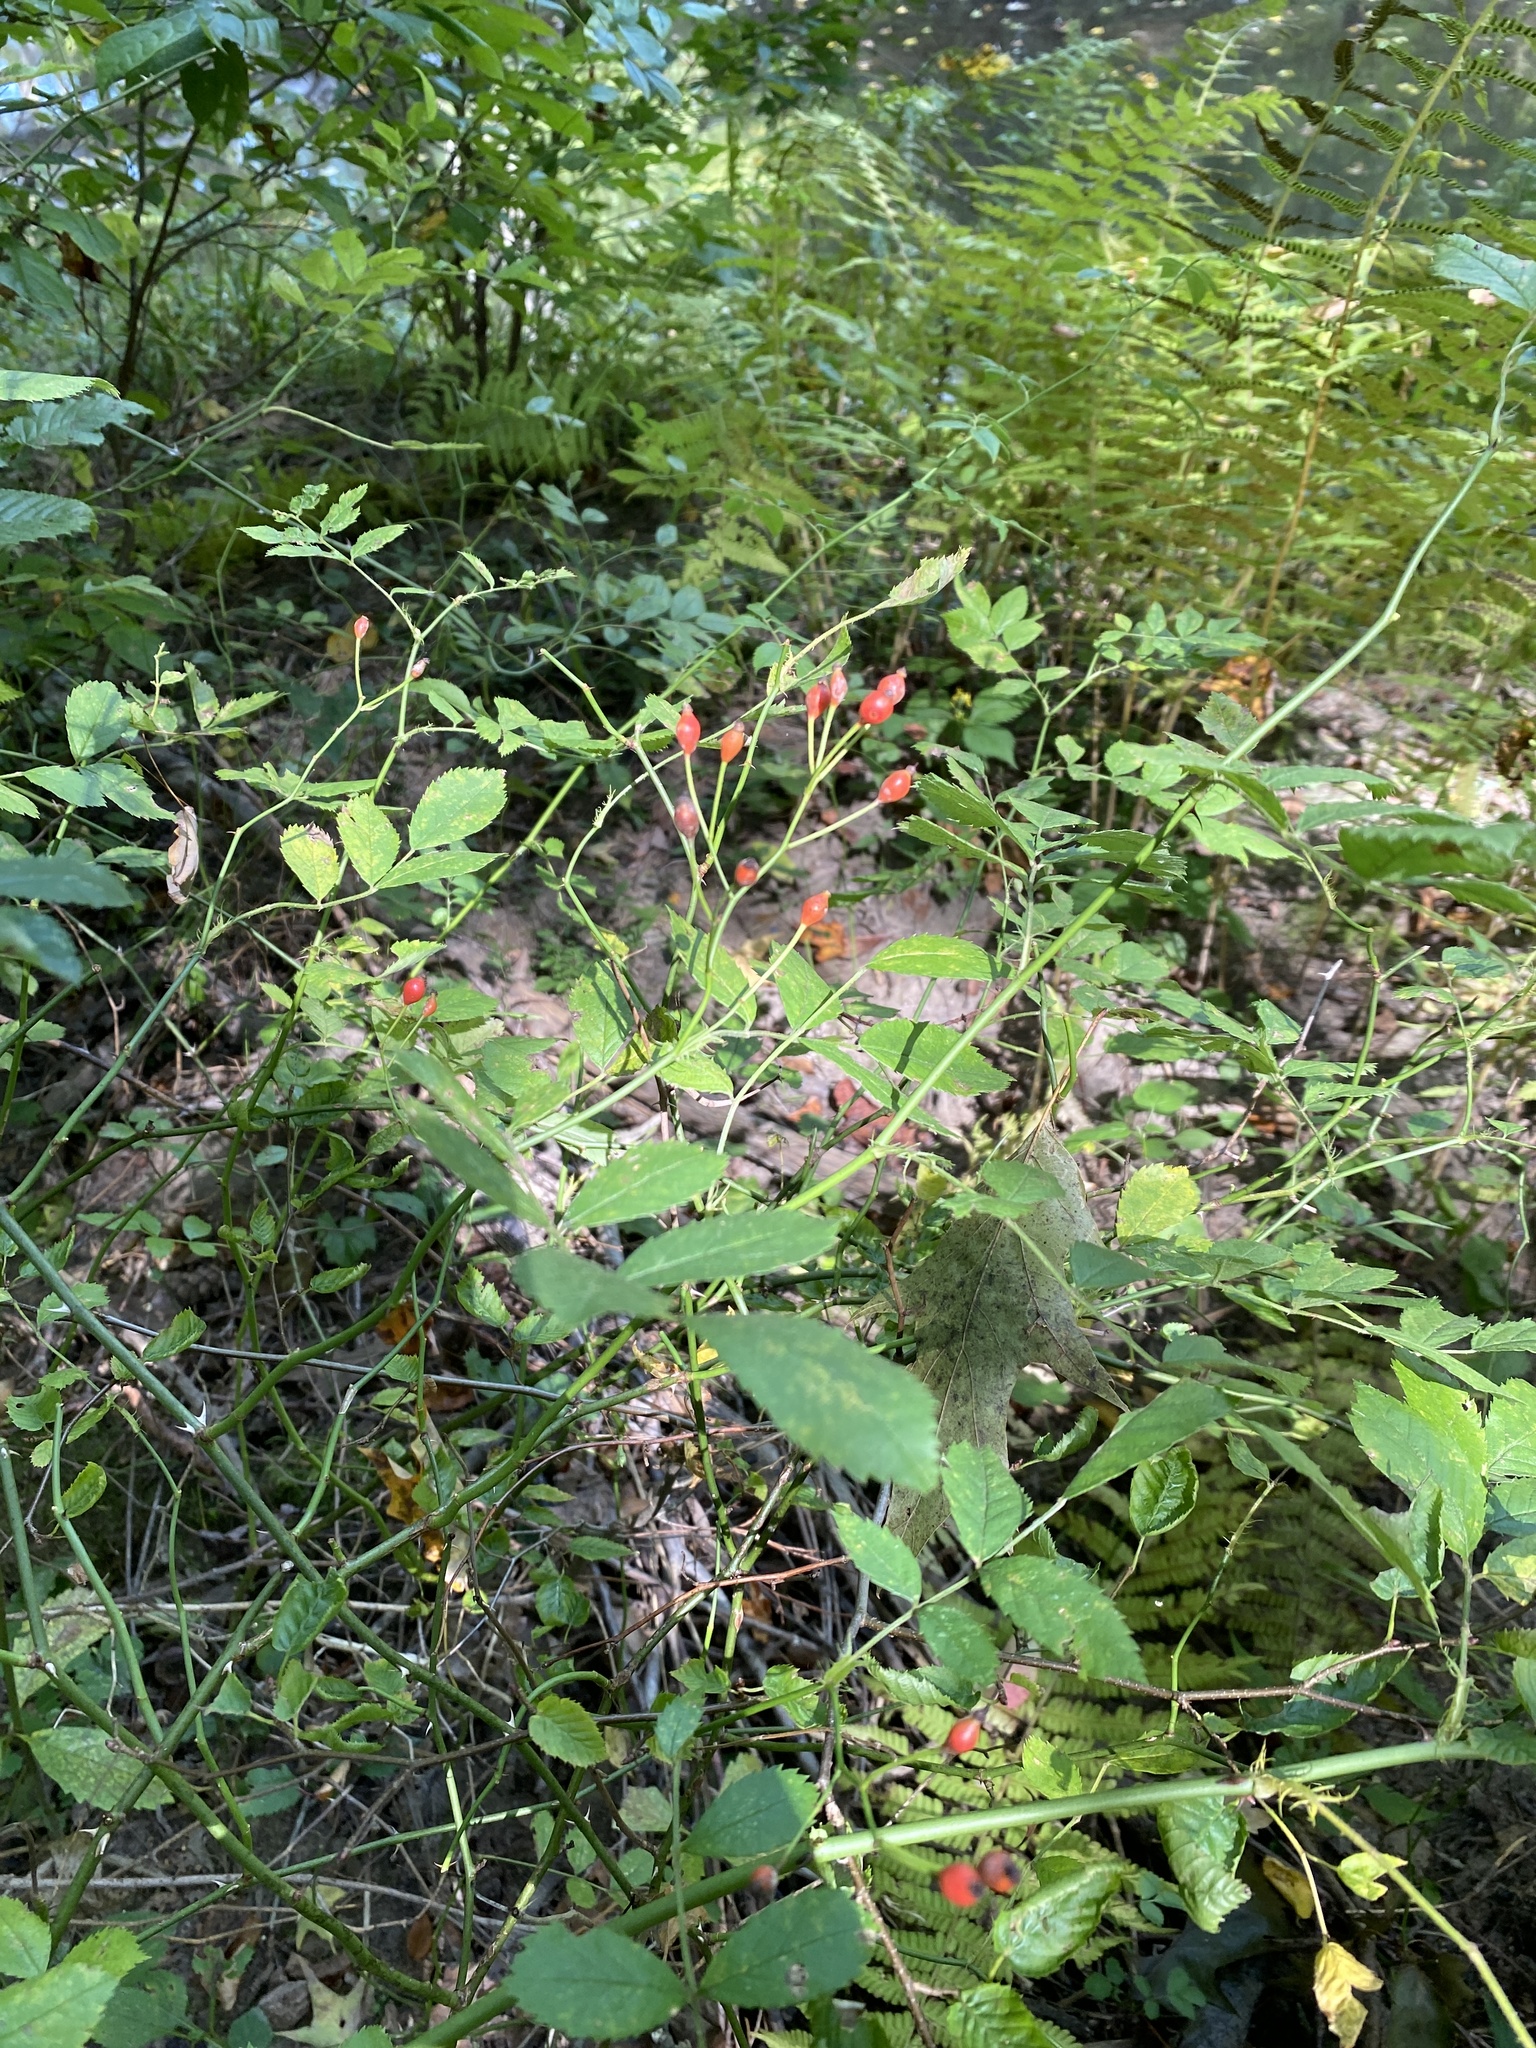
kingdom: Plantae
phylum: Tracheophyta
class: Magnoliopsida
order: Rosales
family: Rosaceae
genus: Rosa
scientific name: Rosa multiflora
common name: Multiflora rose
